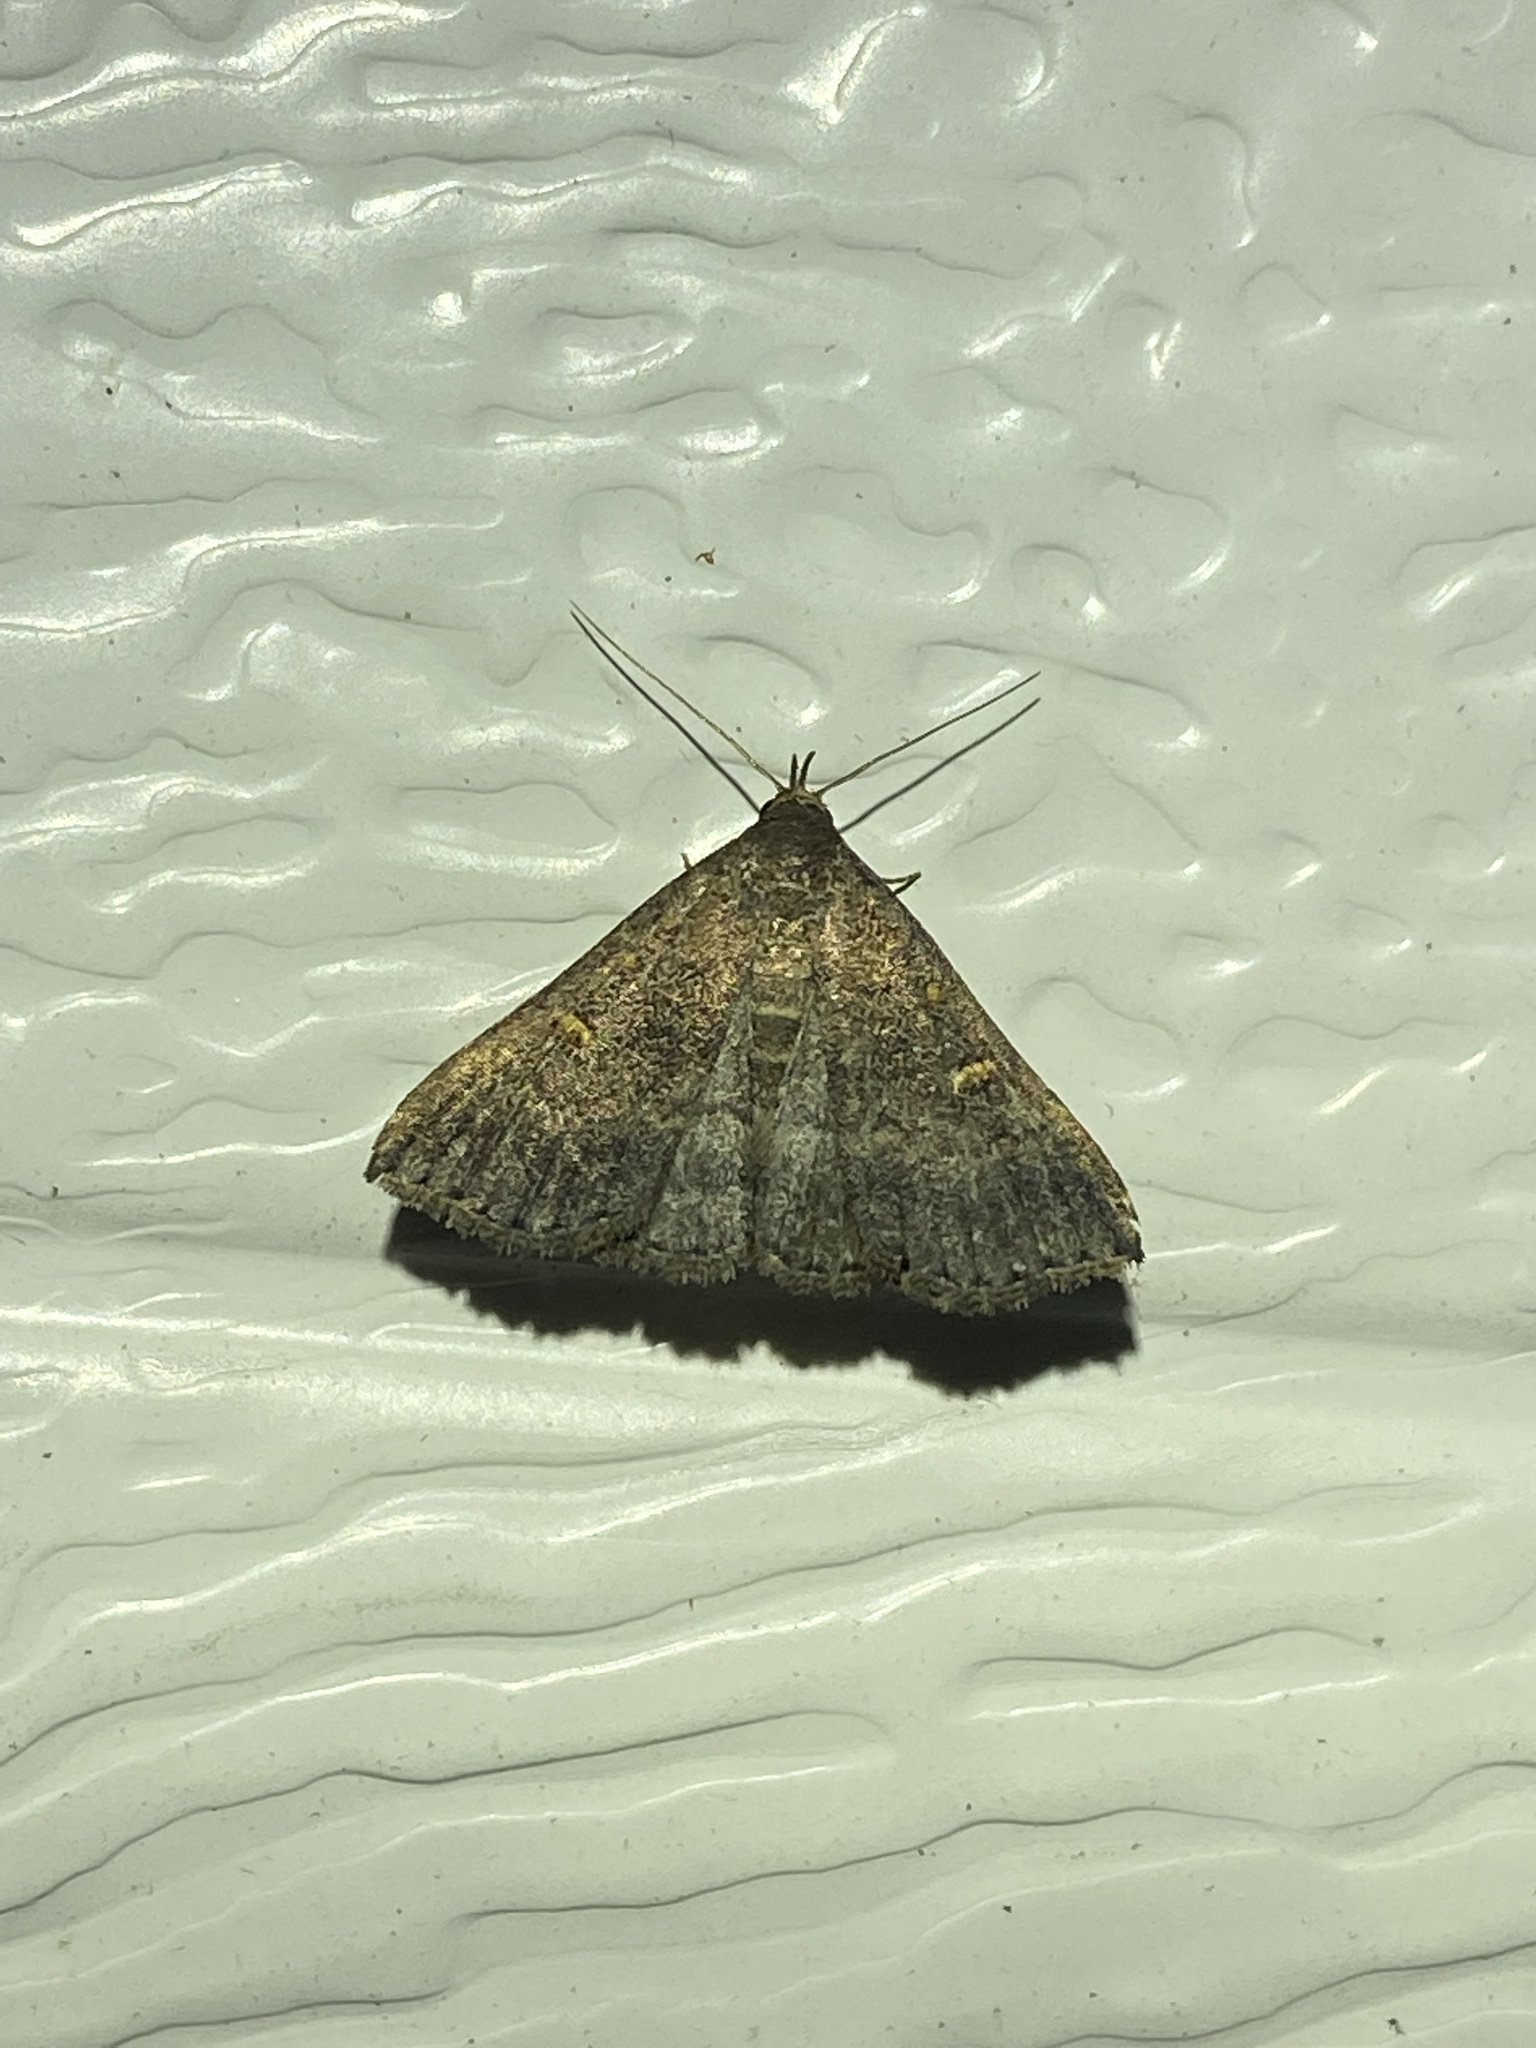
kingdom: Animalia
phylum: Arthropoda
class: Insecta
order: Lepidoptera
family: Erebidae
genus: Tetanolita
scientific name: Tetanolita floridana
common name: Florida tetanolita moth
